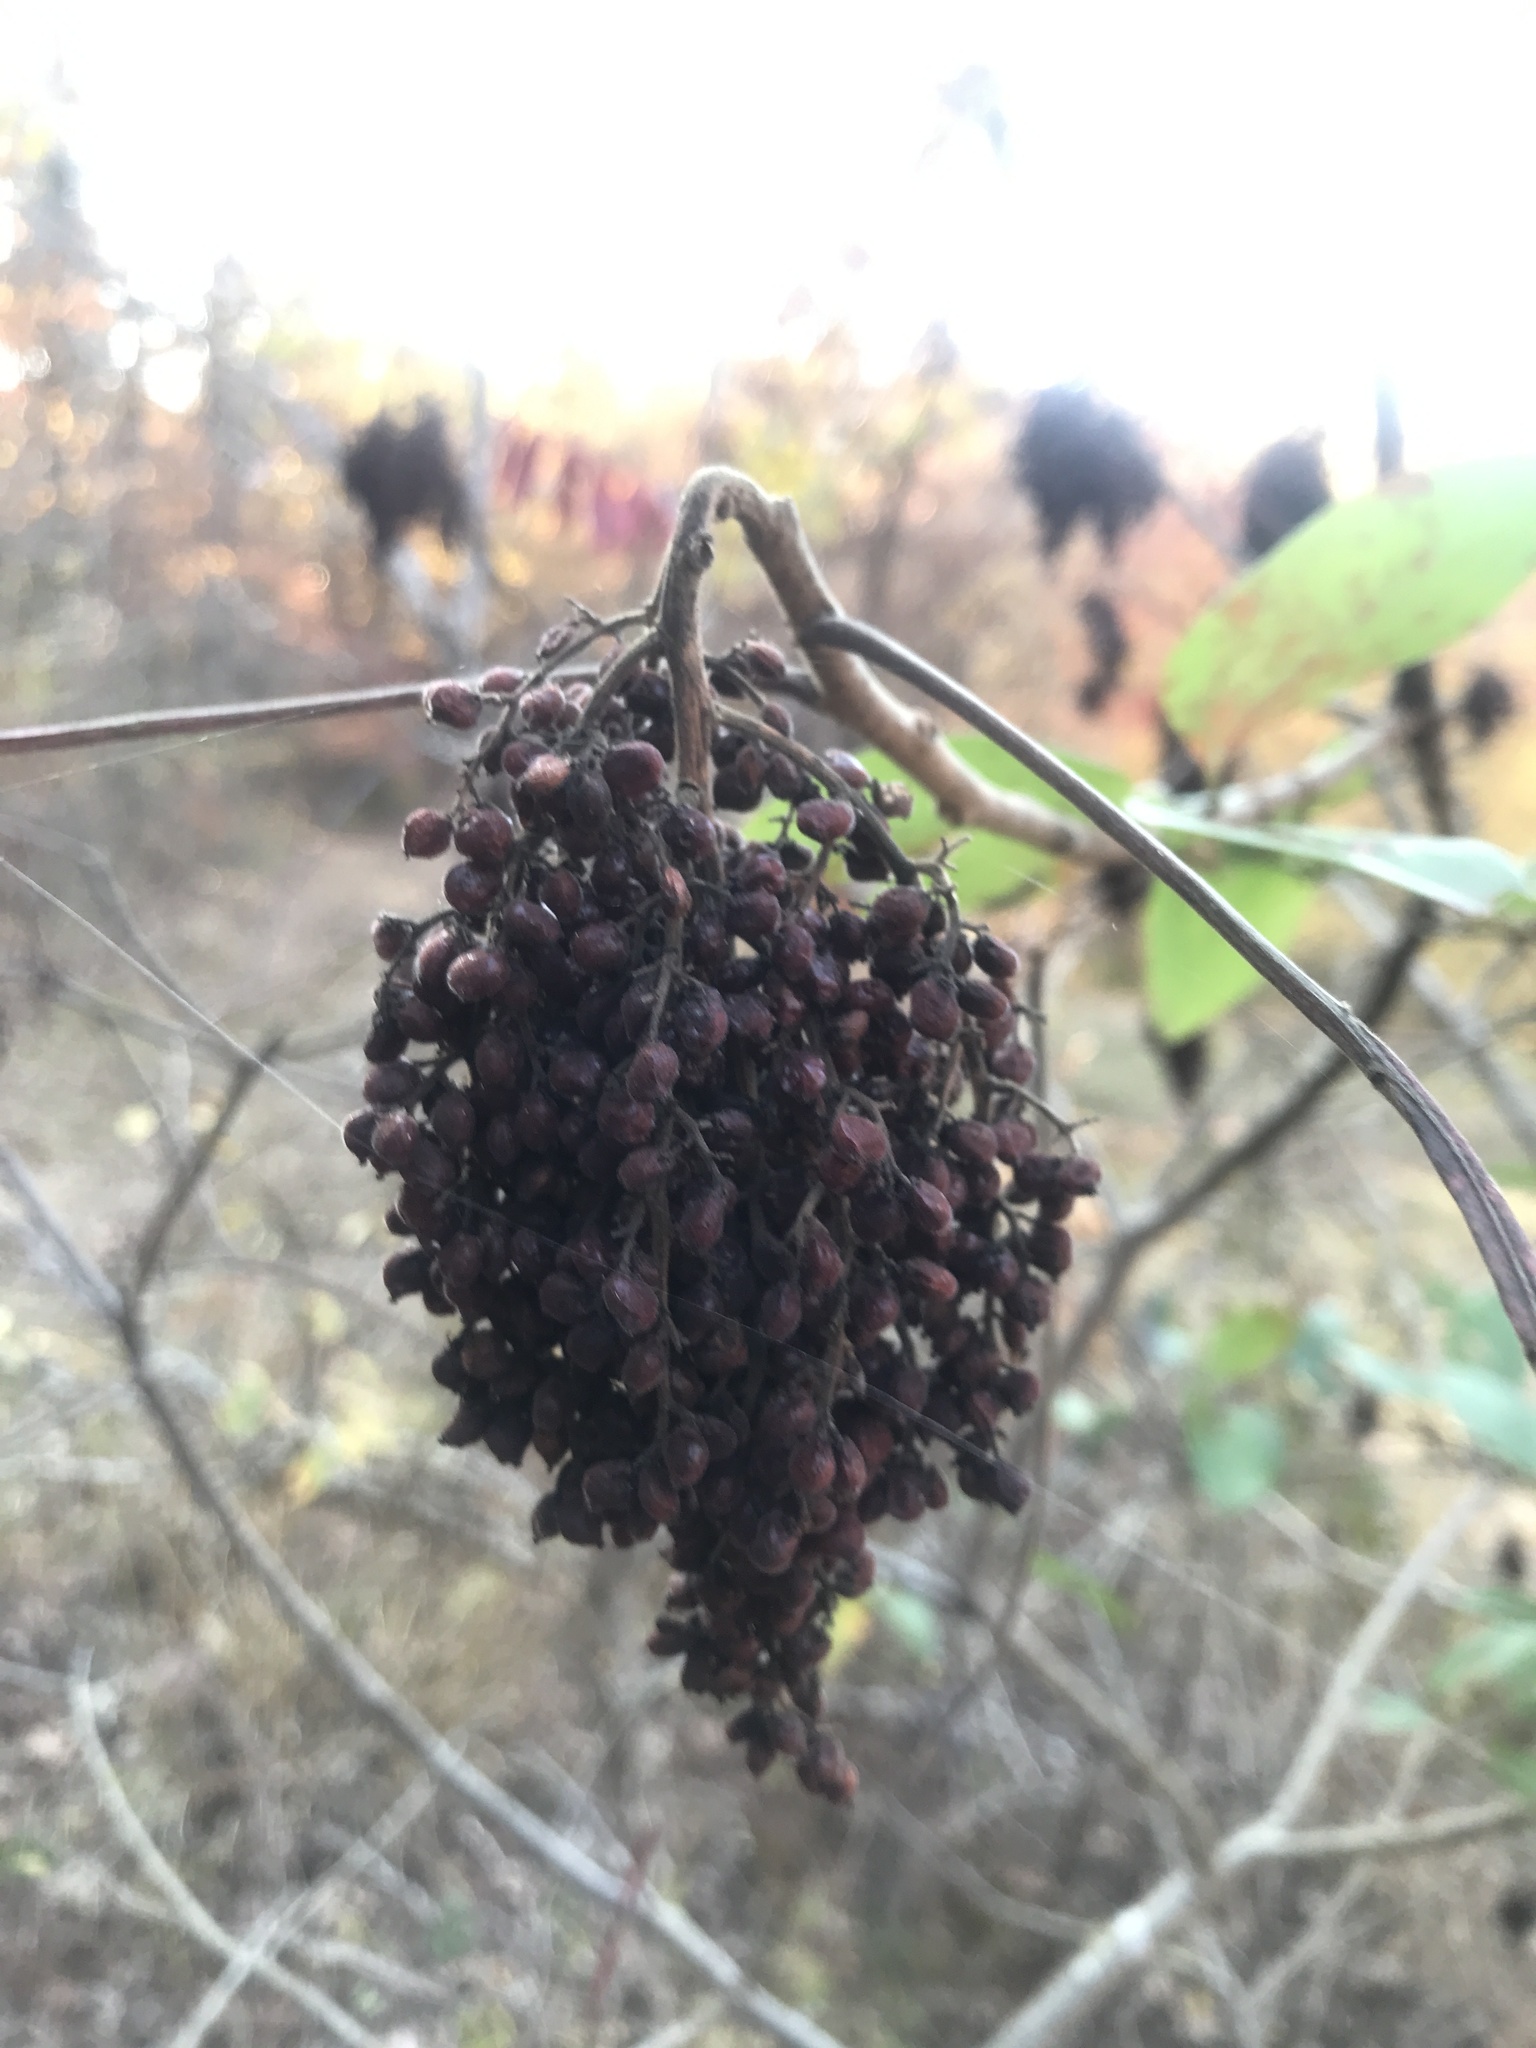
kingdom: Plantae
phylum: Tracheophyta
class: Magnoliopsida
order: Sapindales
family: Anacardiaceae
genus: Rhus
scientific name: Rhus copallina
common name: Shining sumac
